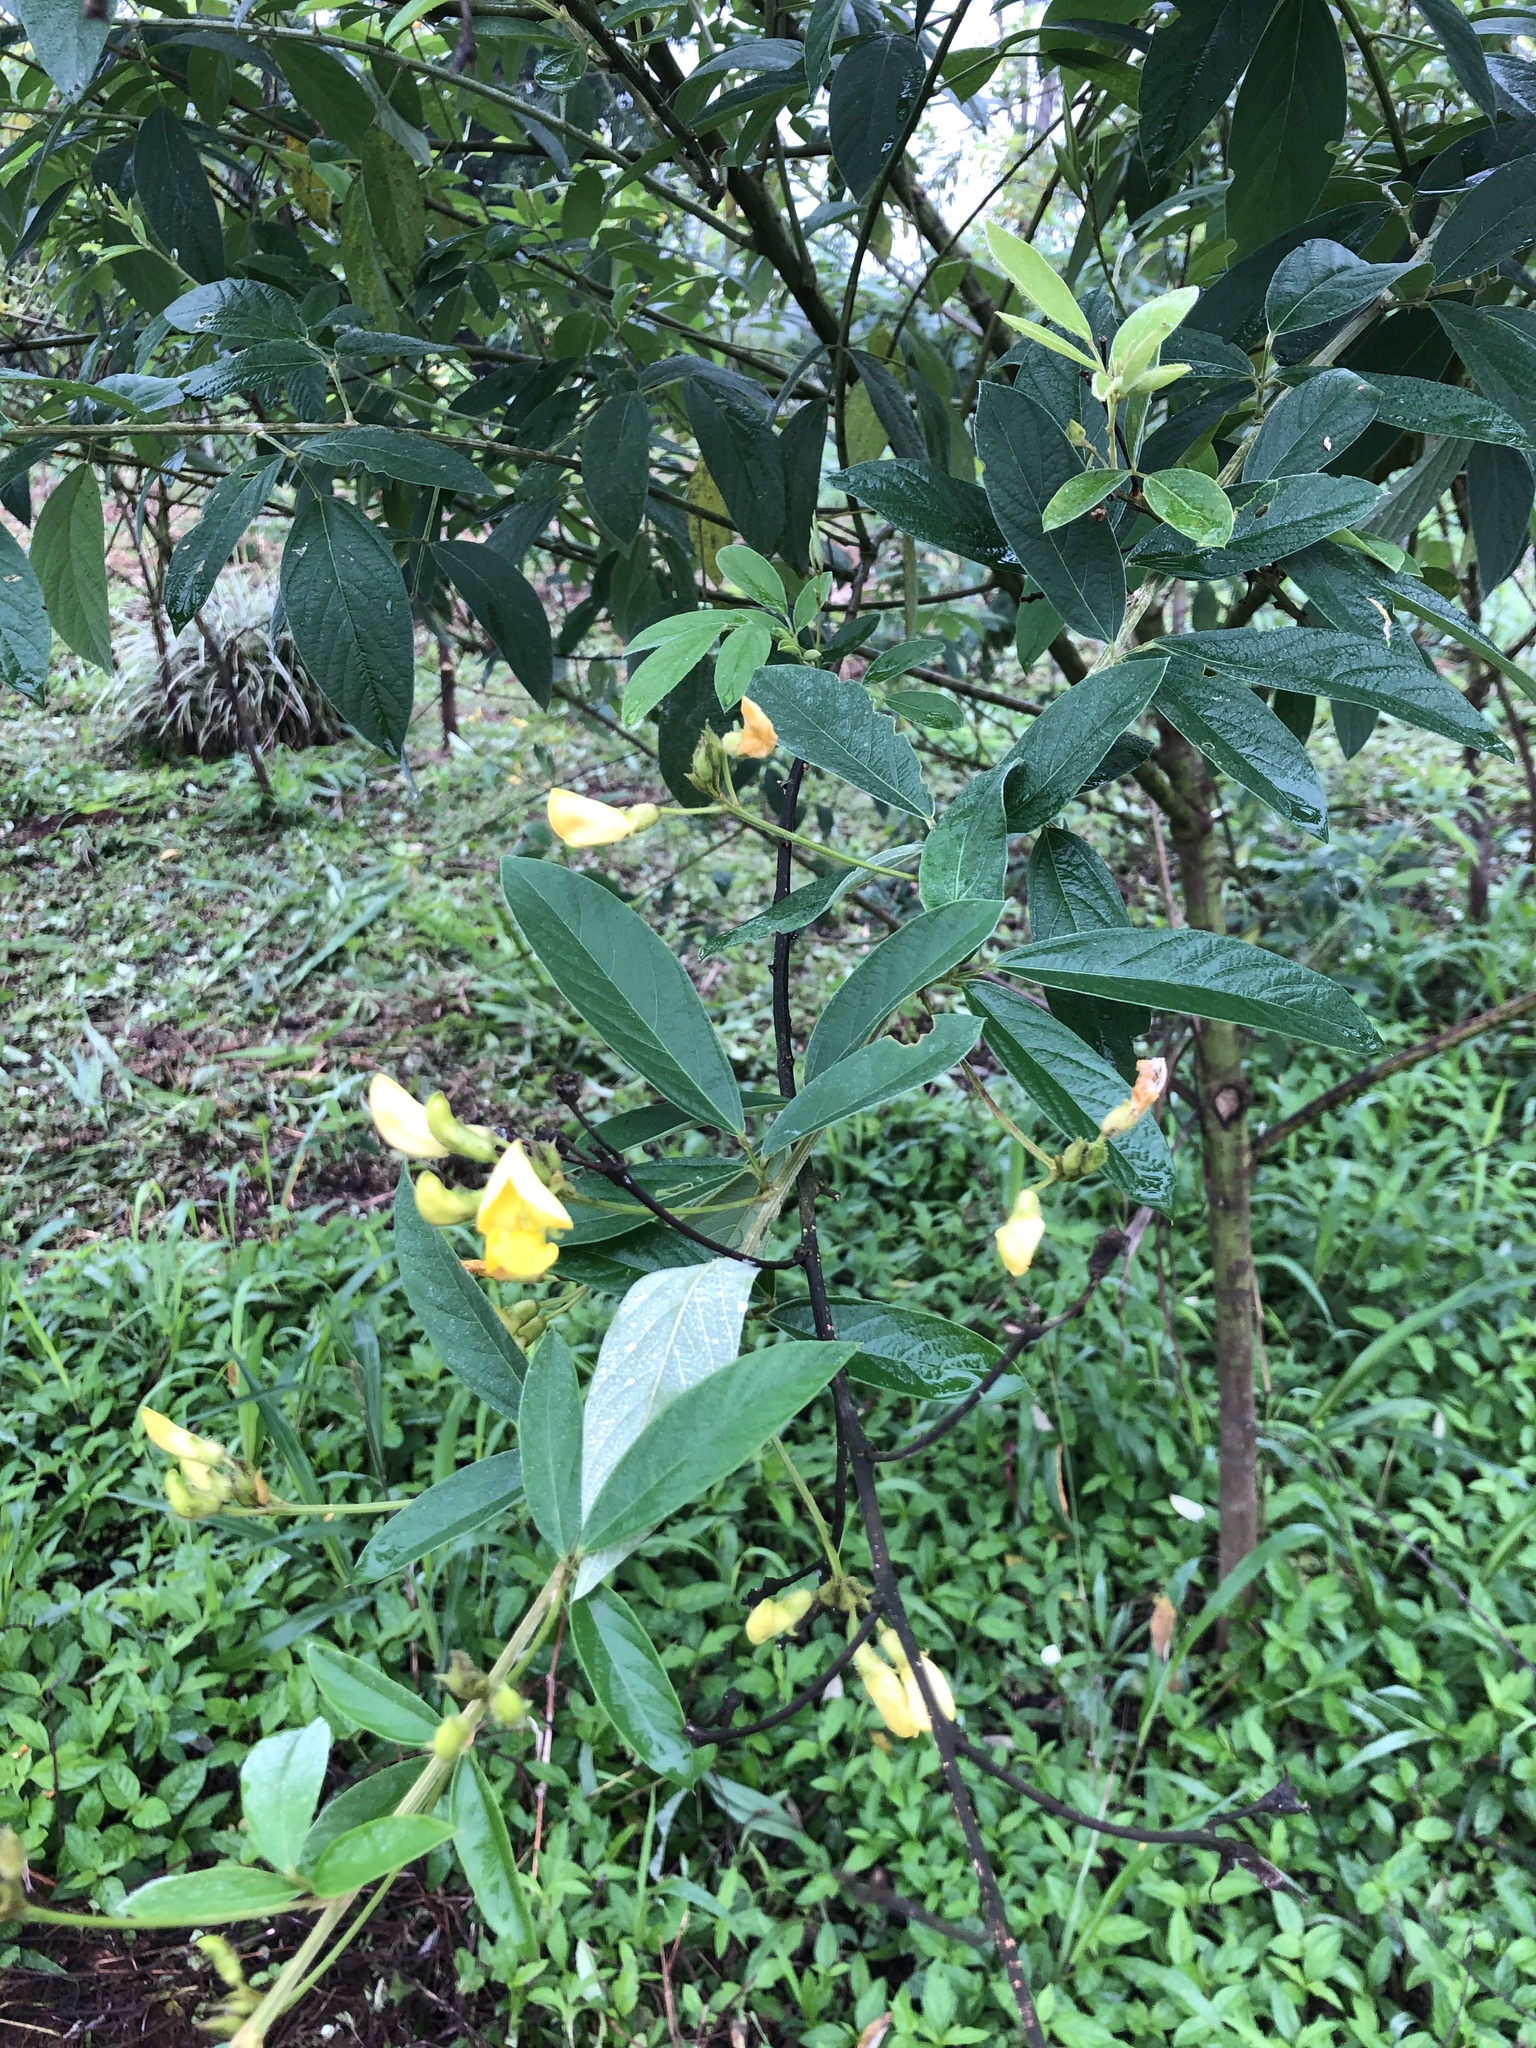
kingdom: Plantae
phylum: Tracheophyta
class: Magnoliopsida
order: Fabales
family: Fabaceae
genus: Cajanus
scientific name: Cajanus cajan
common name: Pigeonpea
